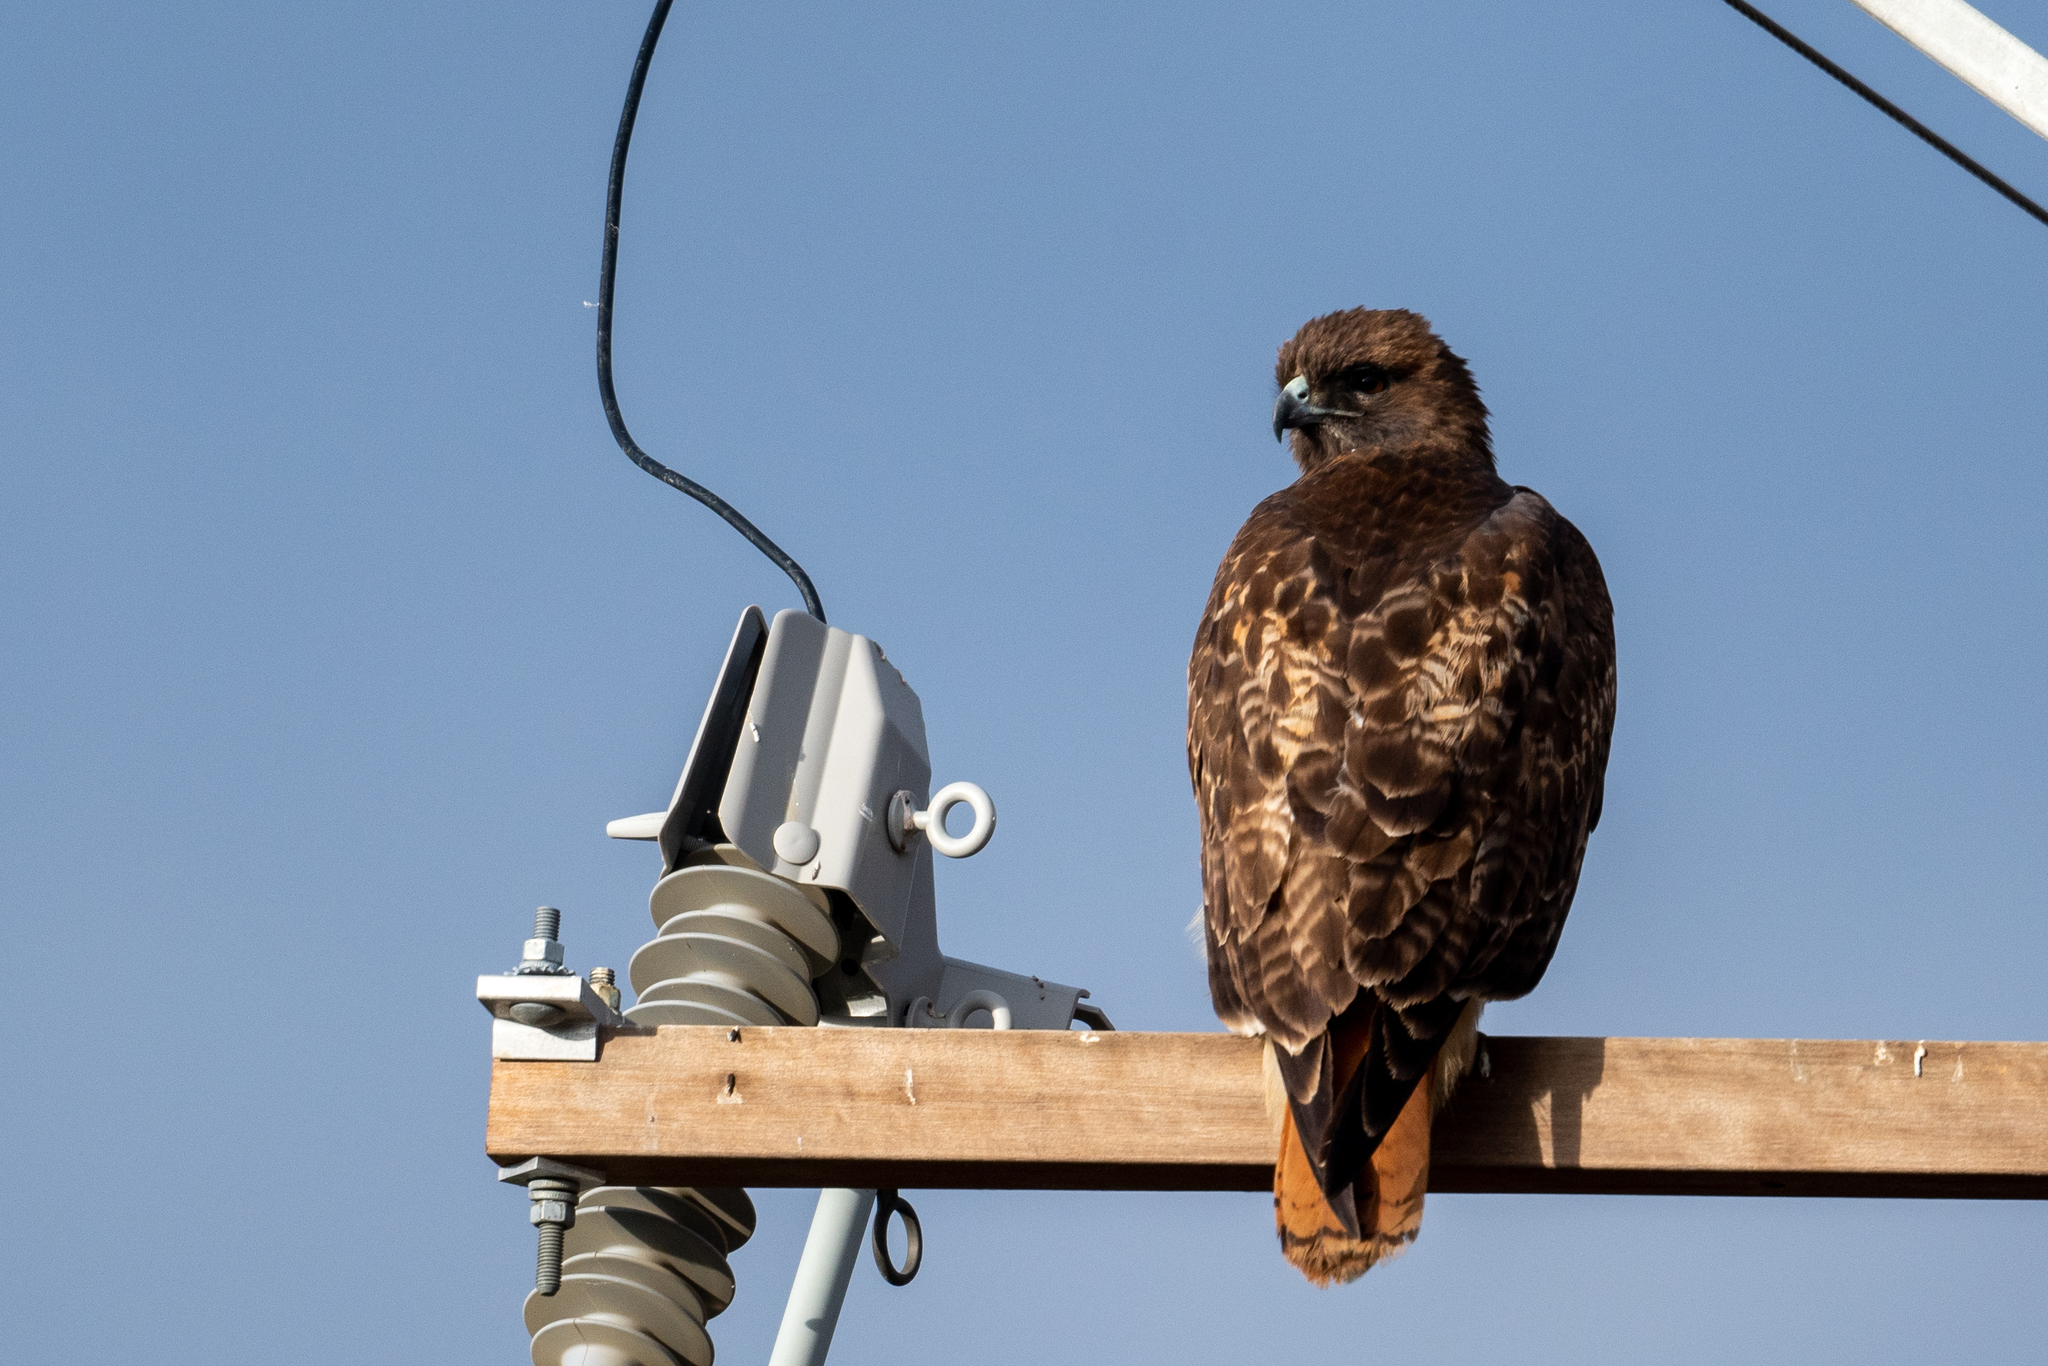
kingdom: Animalia
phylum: Chordata
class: Aves
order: Accipitriformes
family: Accipitridae
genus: Buteo
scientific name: Buteo jamaicensis
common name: Red-tailed hawk
